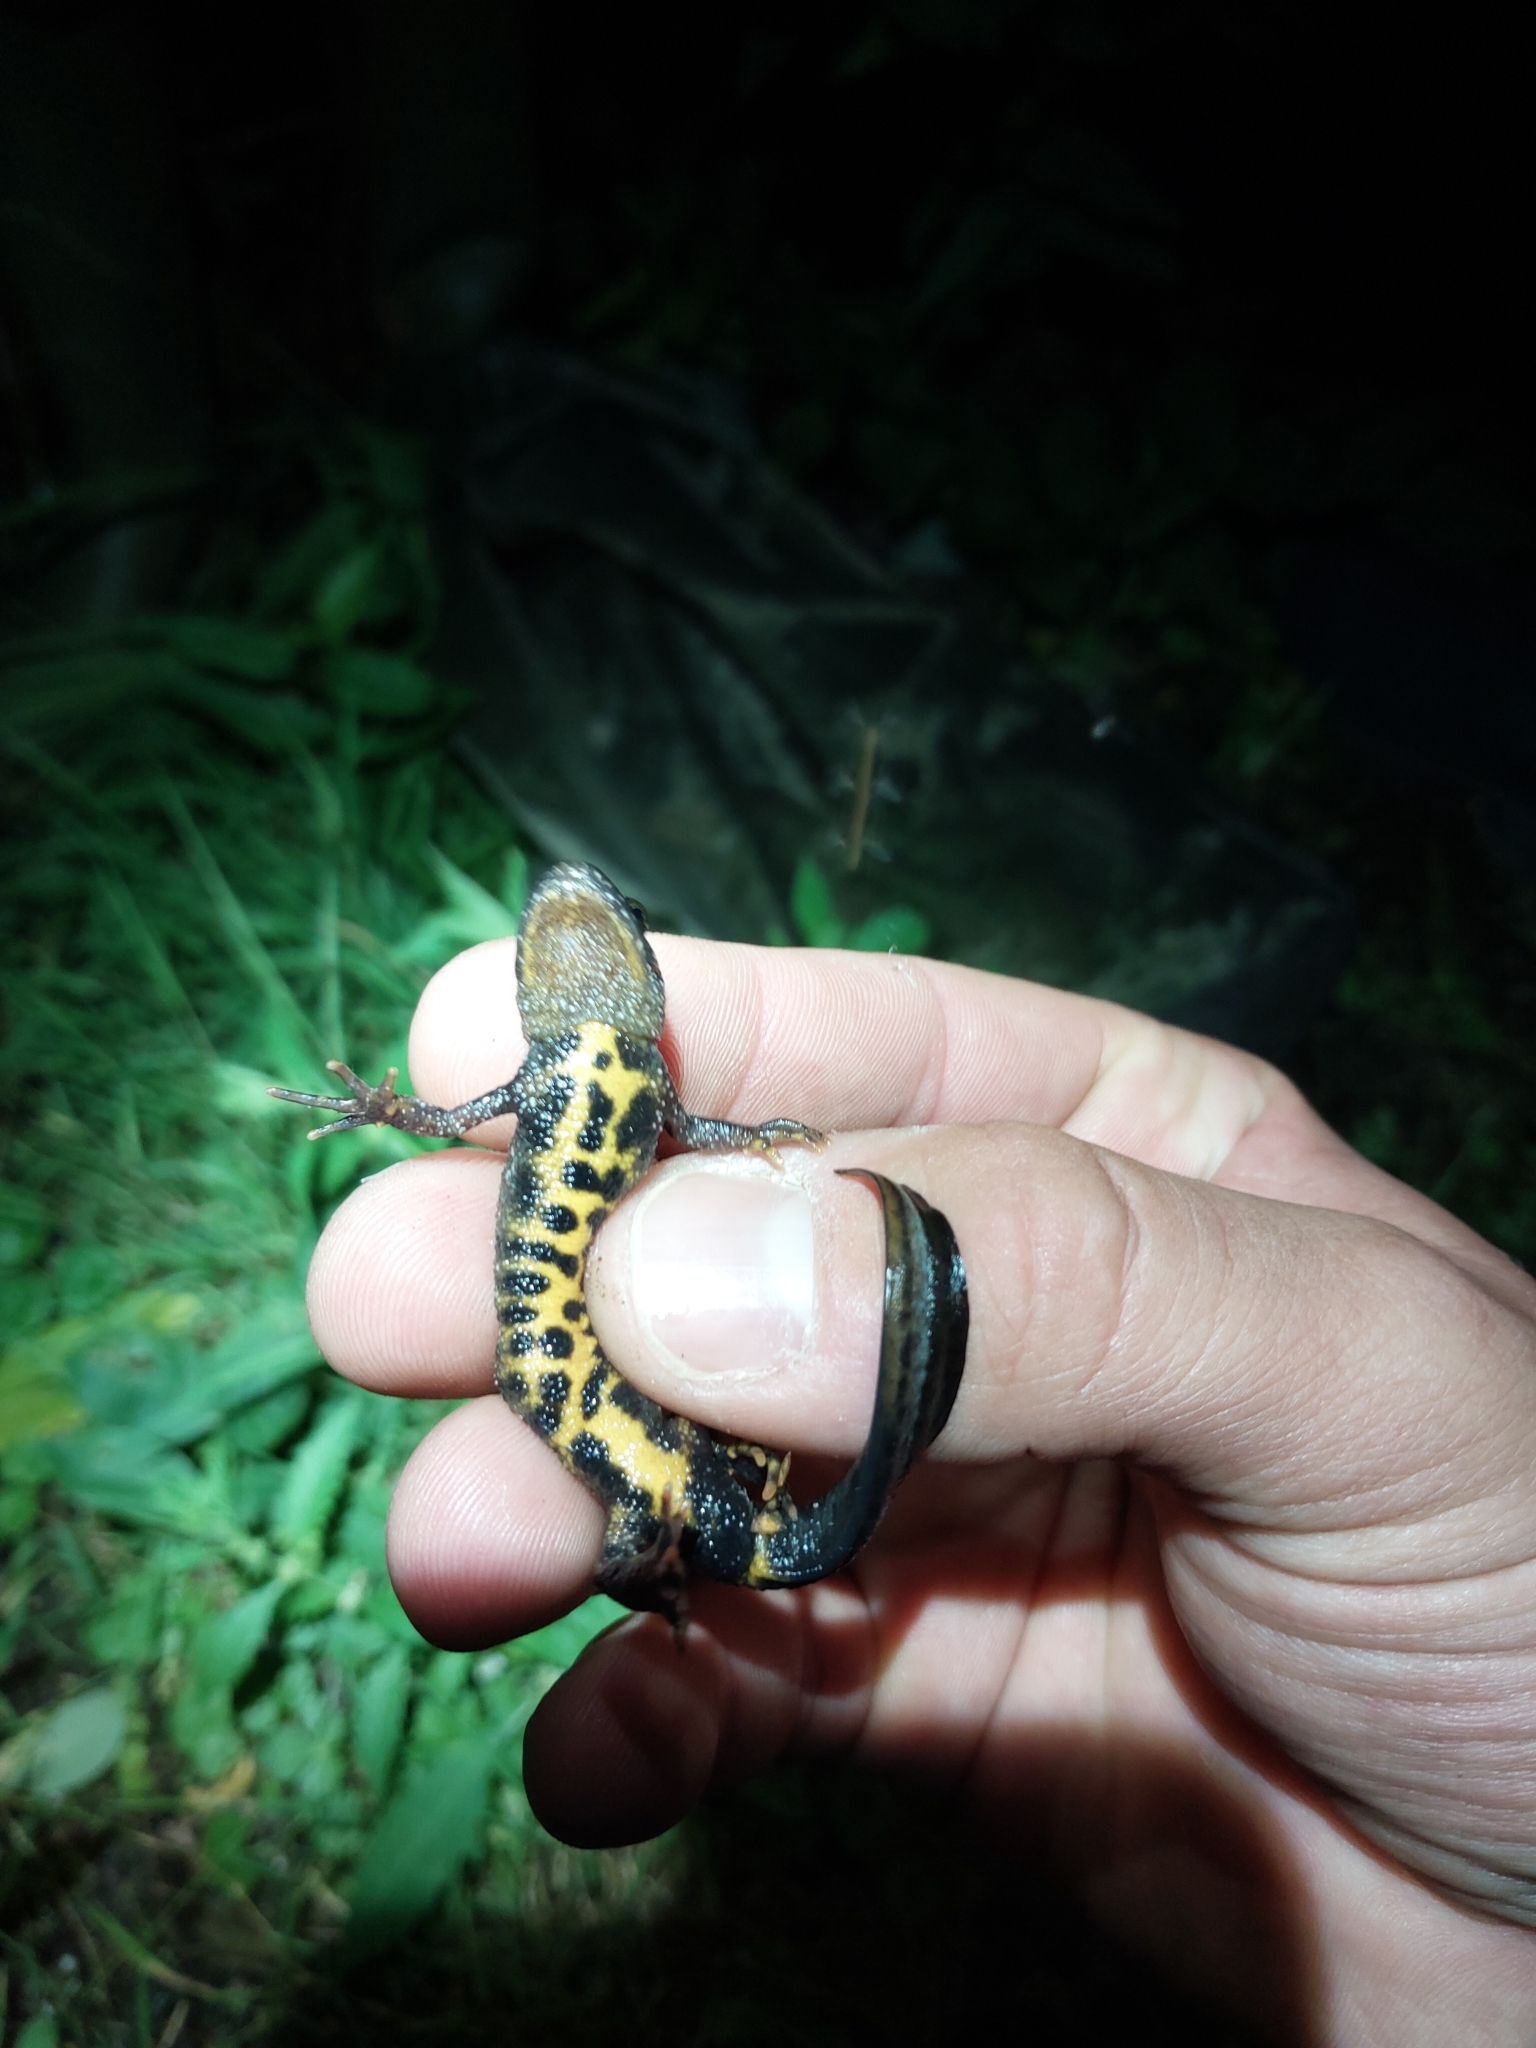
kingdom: Animalia
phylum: Chordata
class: Amphibia
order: Caudata
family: Salamandridae
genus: Triturus
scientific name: Triturus cristatus
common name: Crested newt
